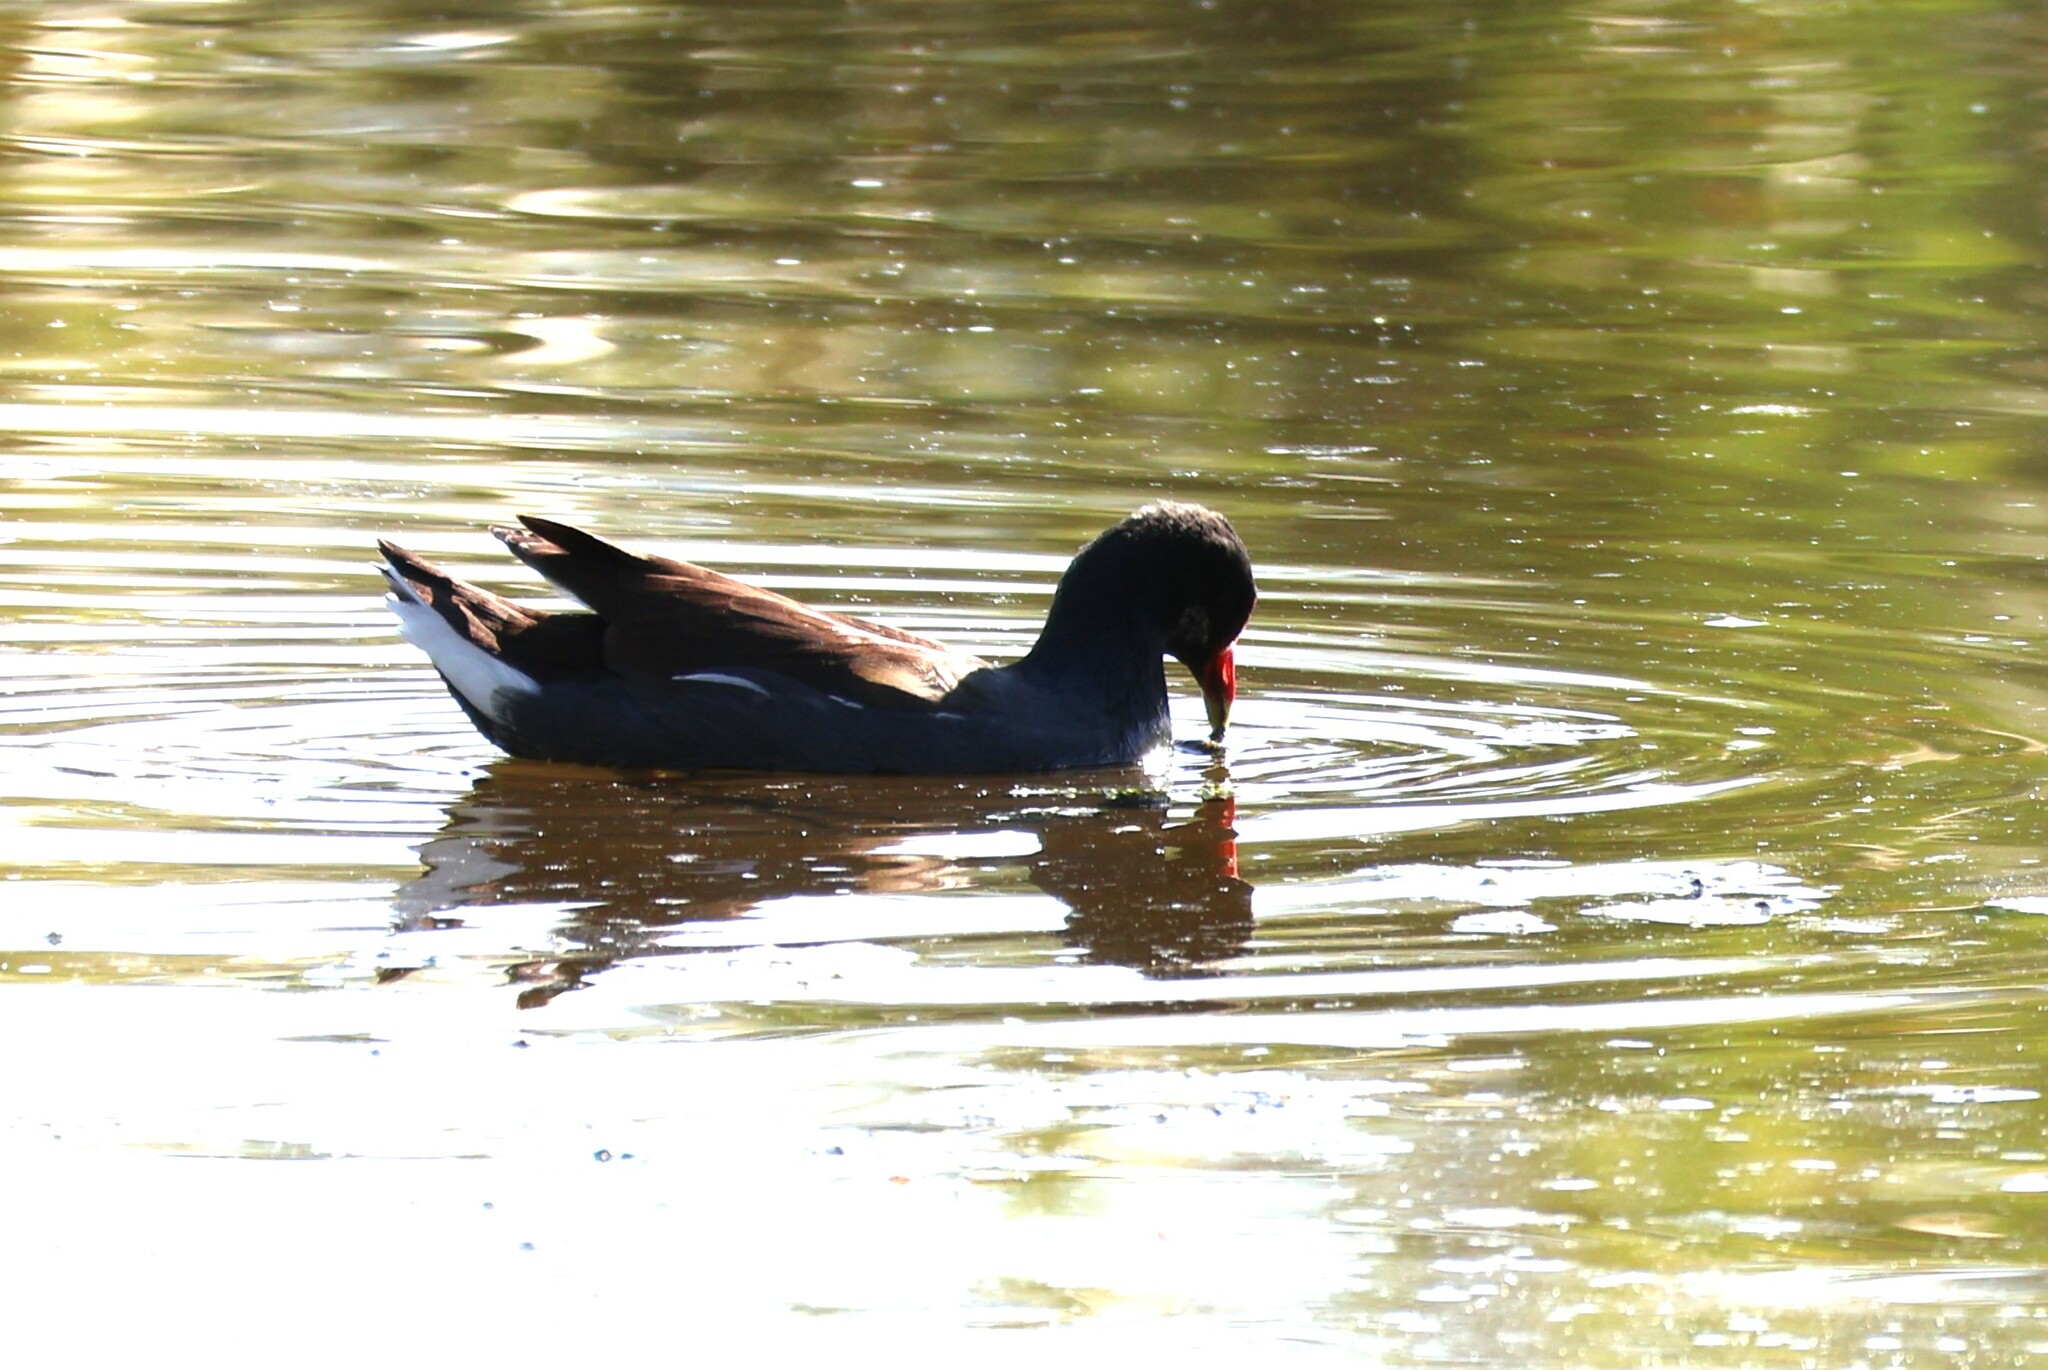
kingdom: Animalia
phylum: Chordata
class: Aves
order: Gruiformes
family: Rallidae
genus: Gallinula
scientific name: Gallinula chloropus
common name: Common moorhen
